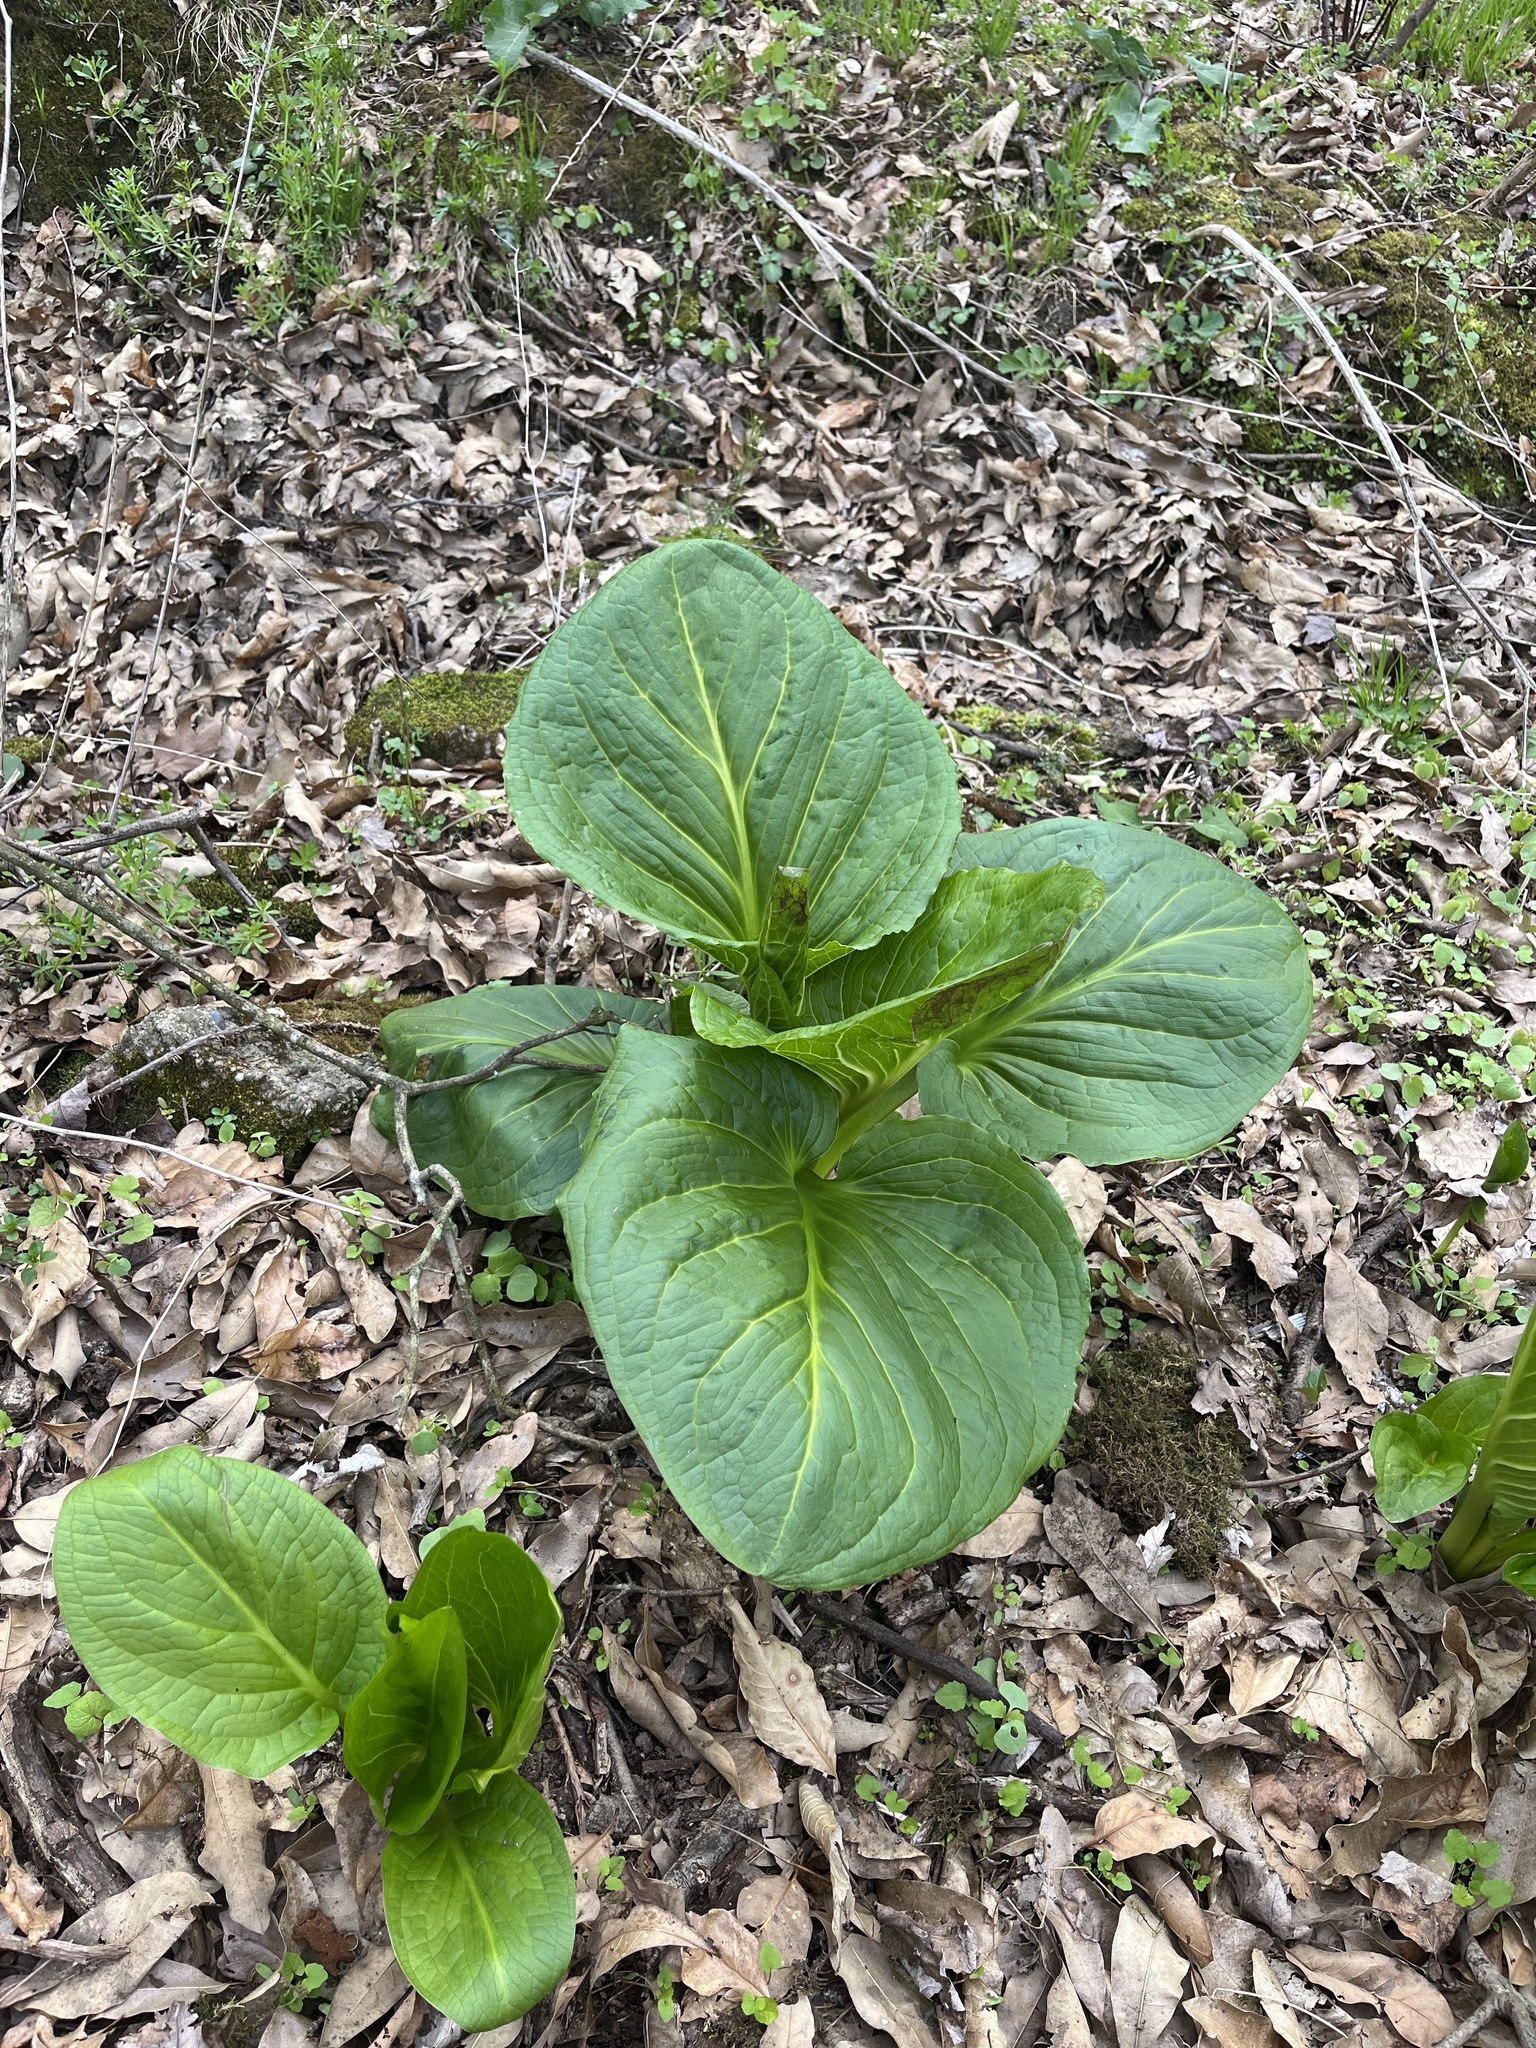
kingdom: Plantae
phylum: Tracheophyta
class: Liliopsida
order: Alismatales
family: Araceae
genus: Symplocarpus
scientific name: Symplocarpus foetidus
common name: Eastern skunk cabbage
